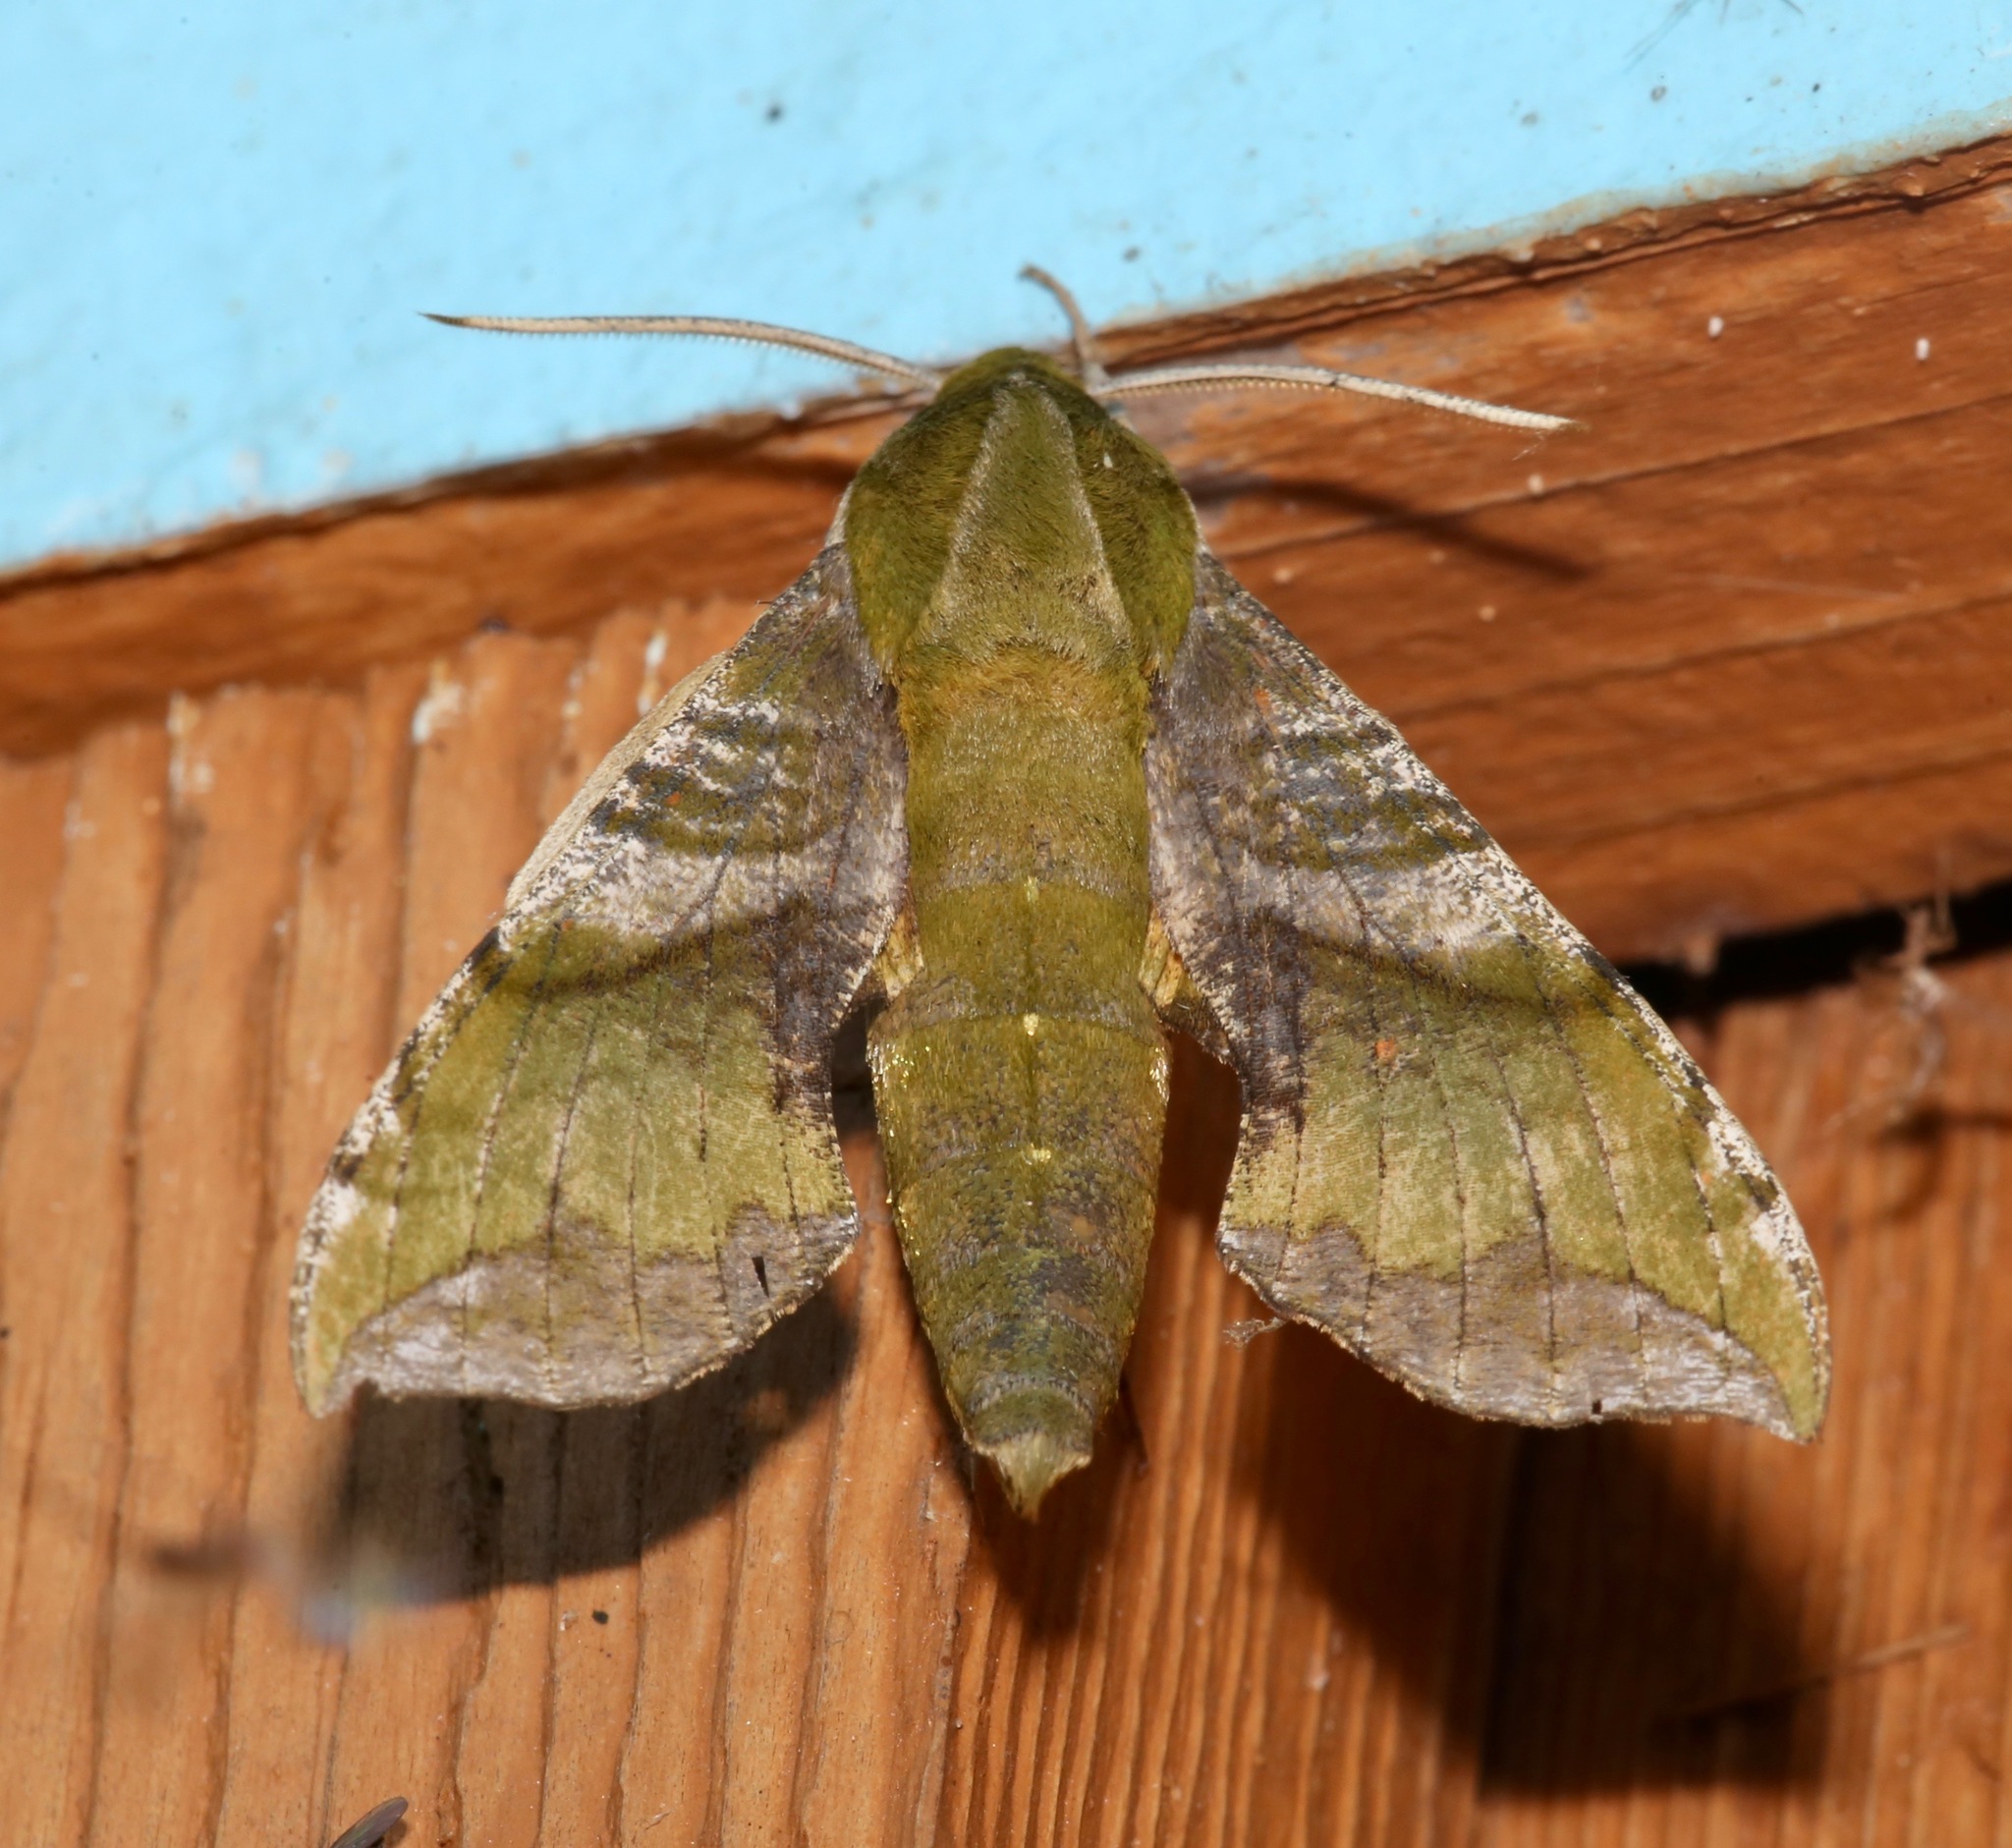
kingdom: Animalia
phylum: Arthropoda
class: Insecta
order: Lepidoptera
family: Sphingidae
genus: Xylophanes
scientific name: Xylophanes pluto
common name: Pluto sphinx
